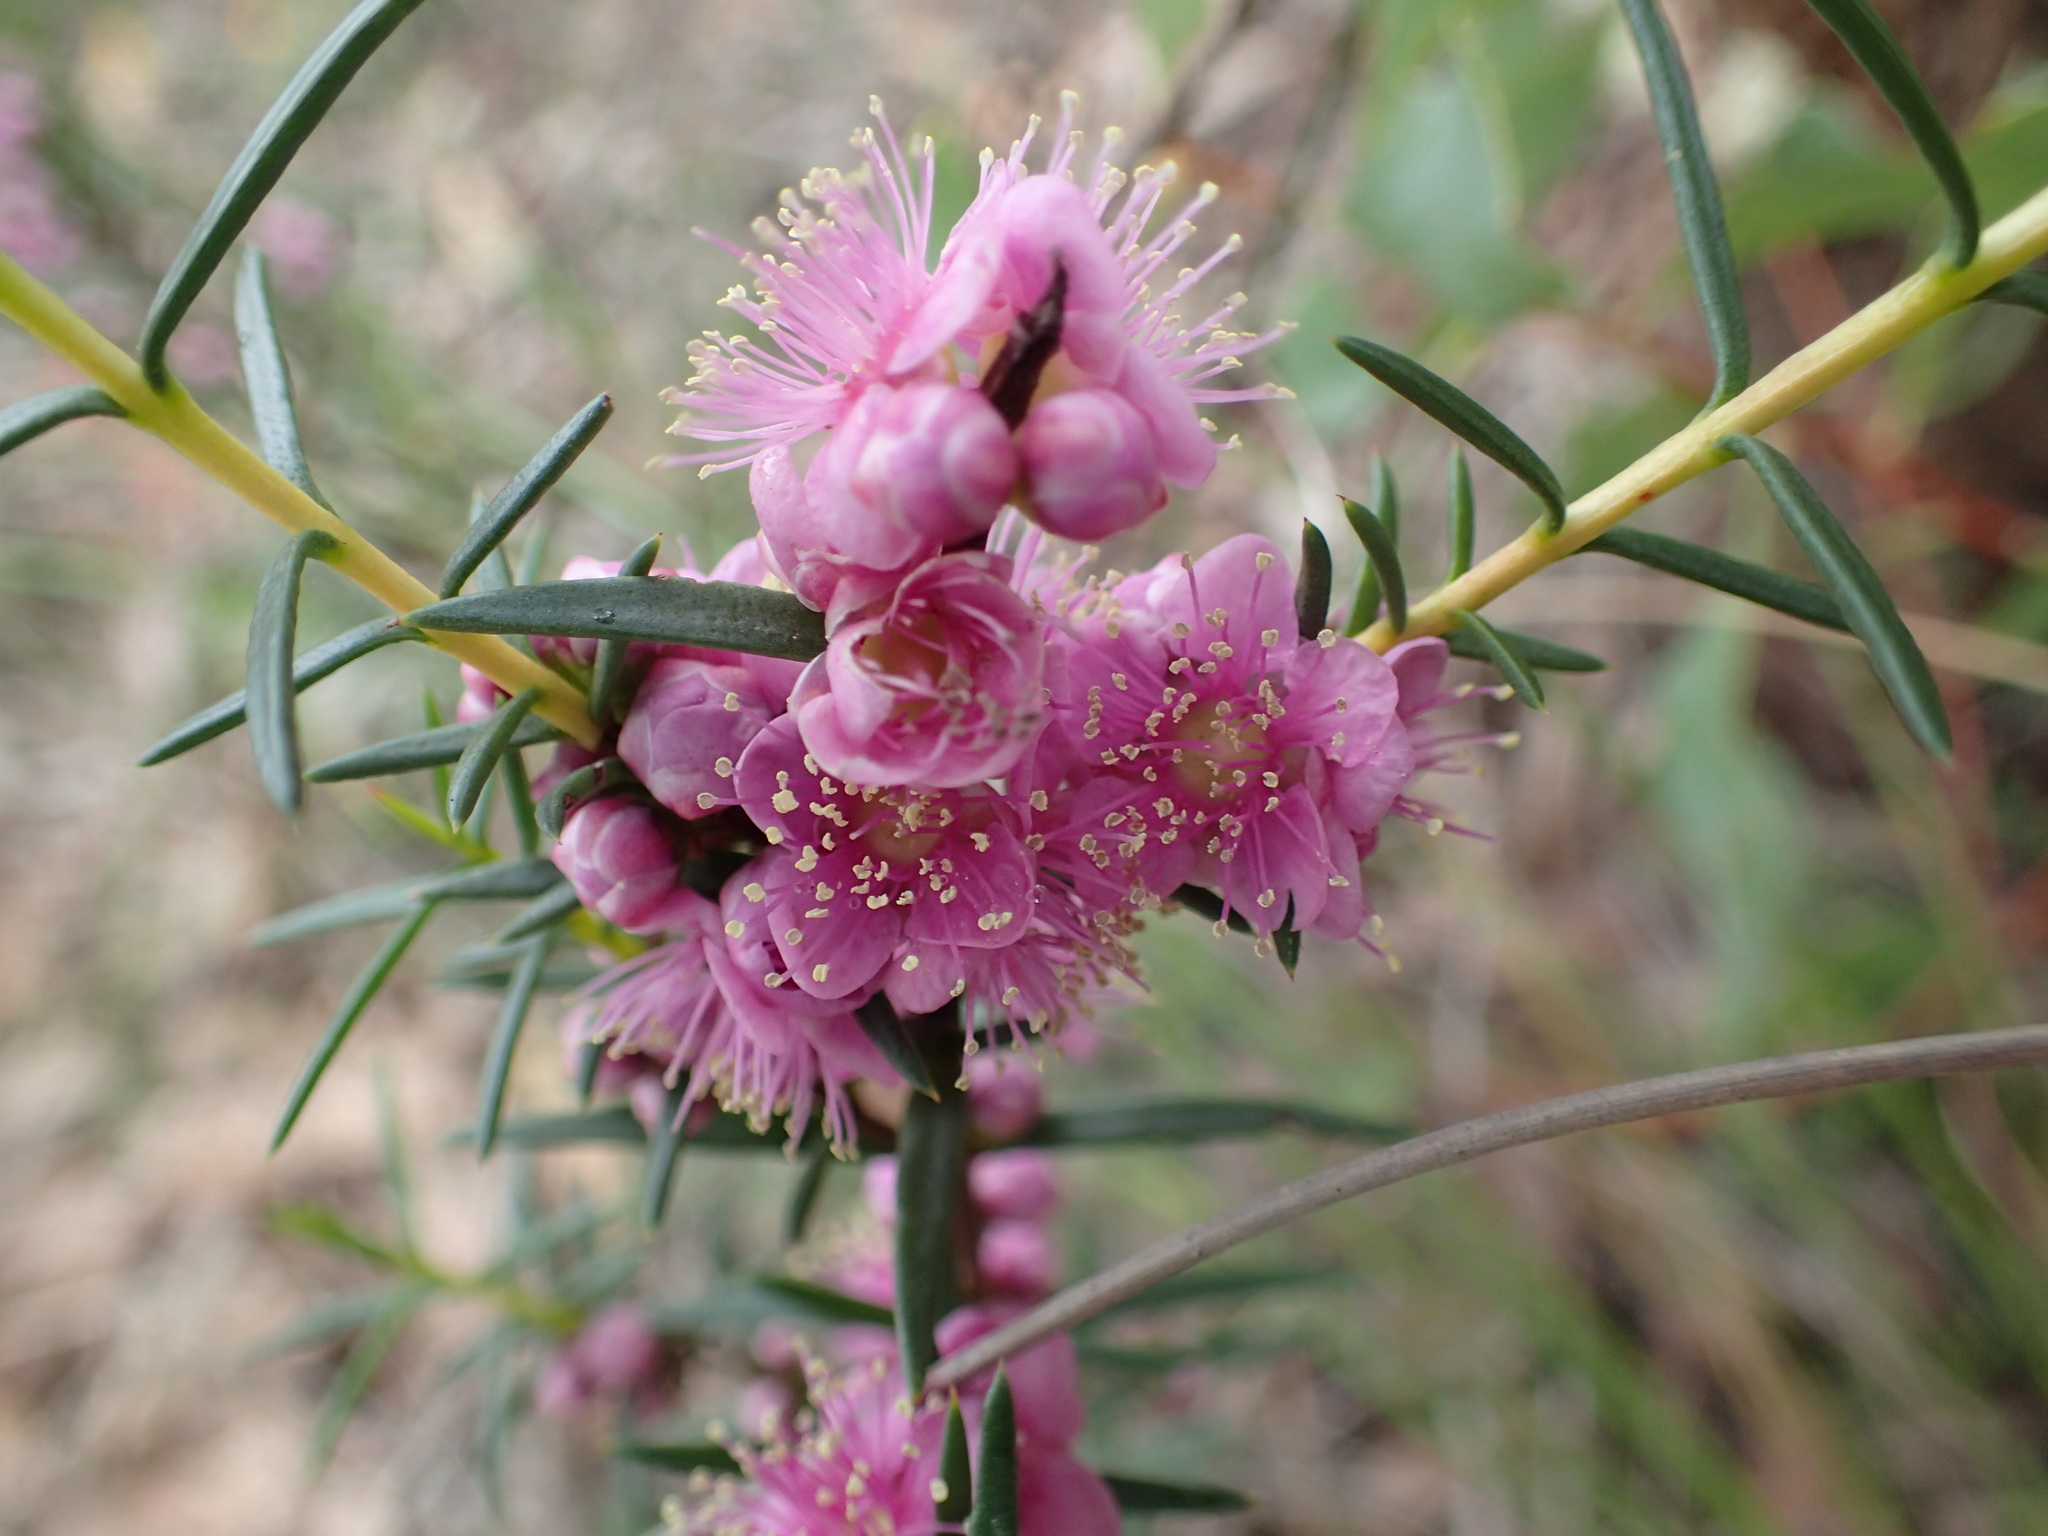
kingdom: Plantae
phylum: Tracheophyta
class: Magnoliopsida
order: Myrtales
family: Myrtaceae
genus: Hypocalymma
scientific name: Hypocalymma robustum
